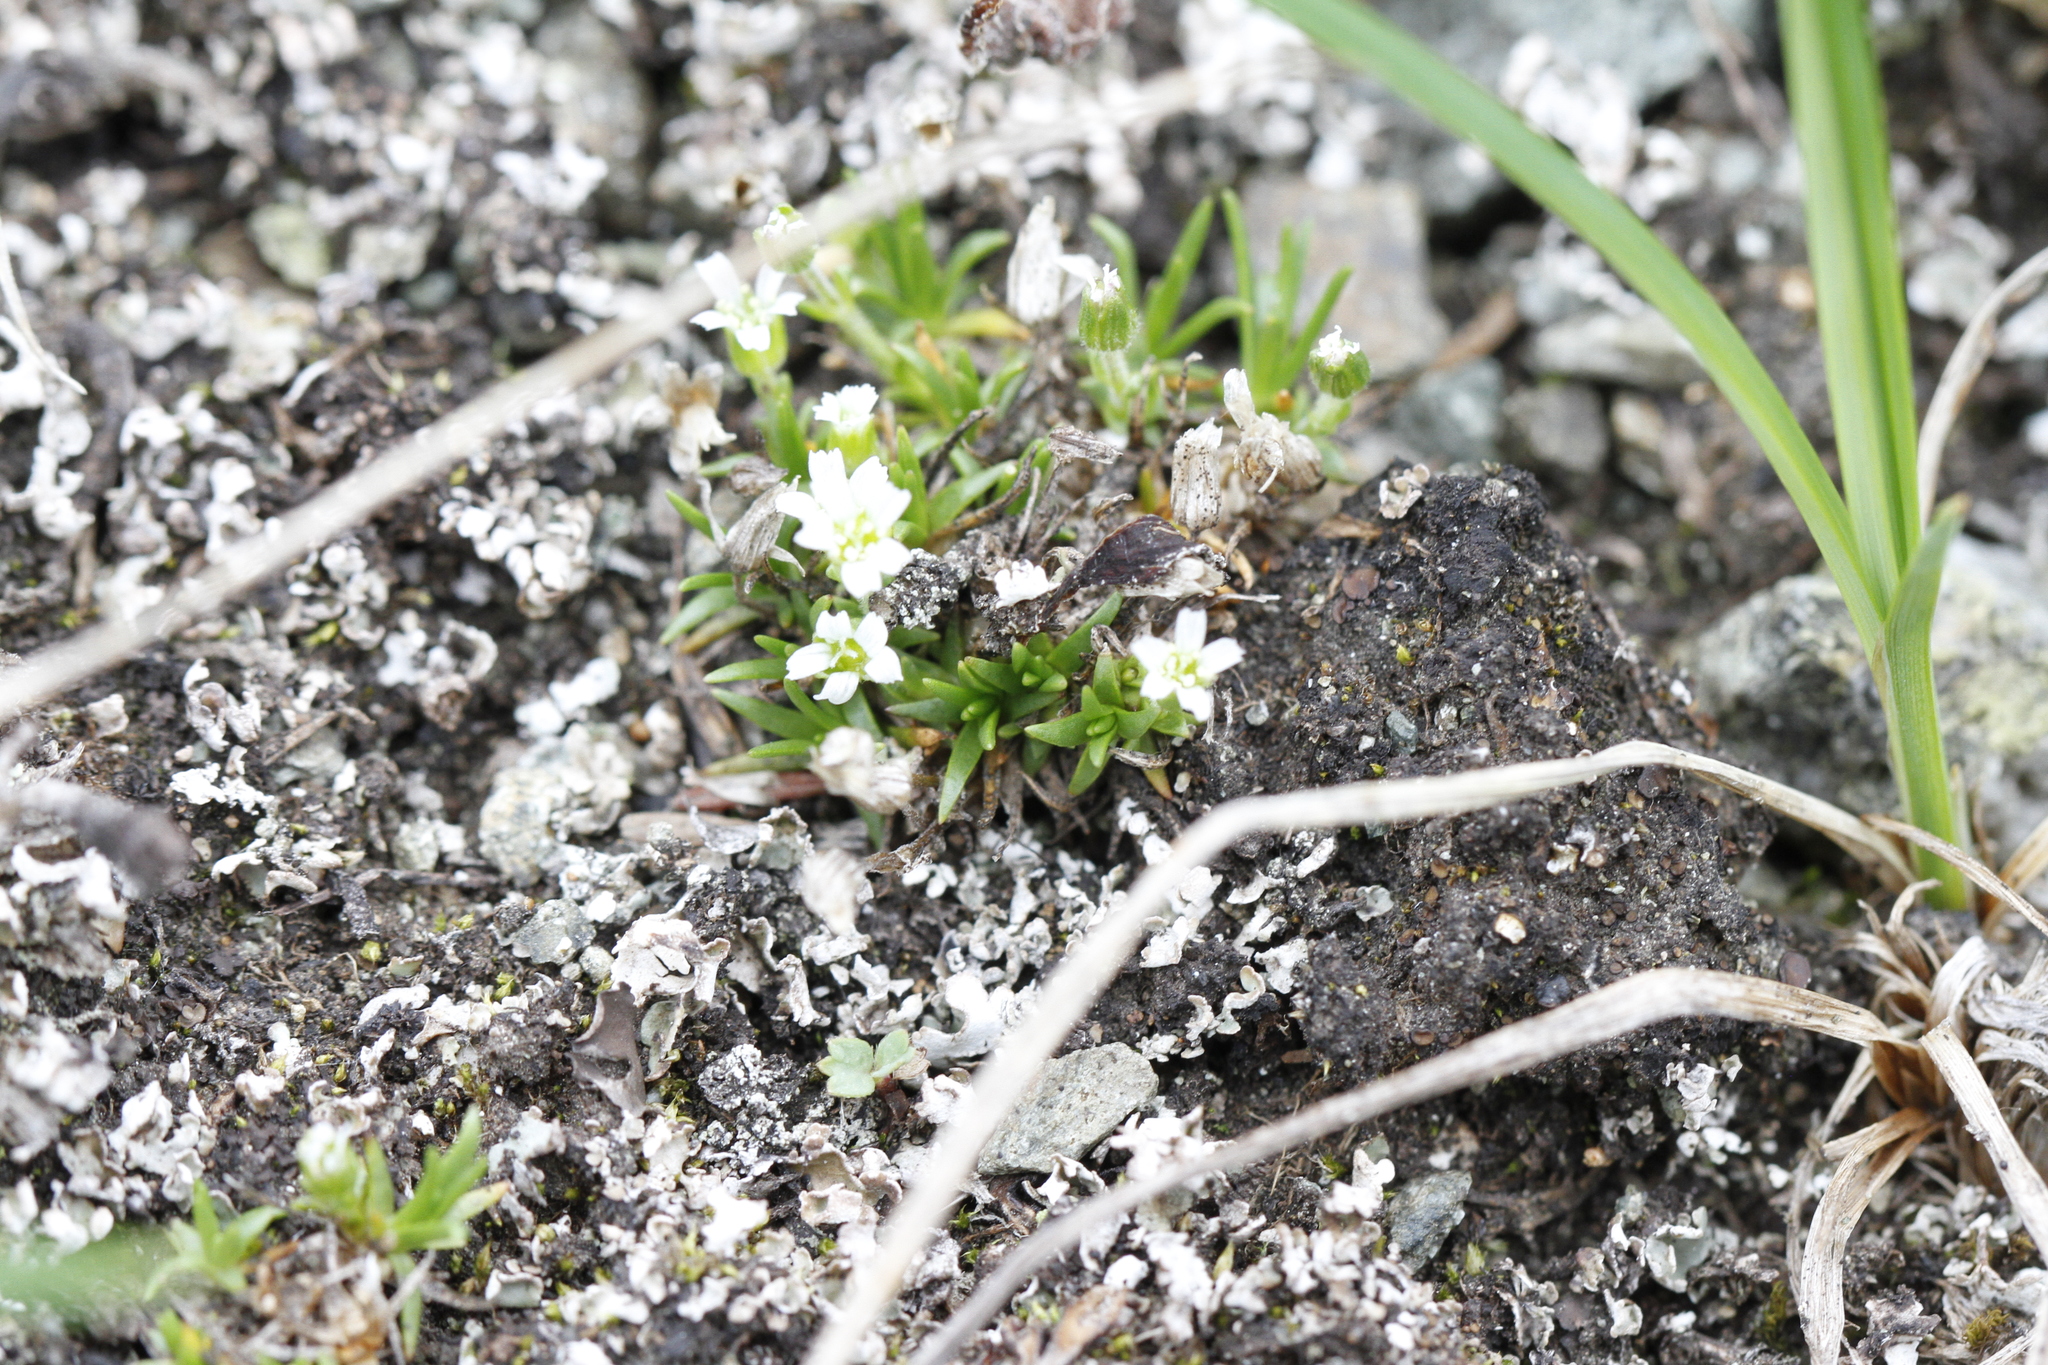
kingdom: Plantae
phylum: Tracheophyta
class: Magnoliopsida
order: Caryophyllales
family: Caryophyllaceae
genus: Cherleria
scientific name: Cherleria biflora
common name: Mountain sandwort
